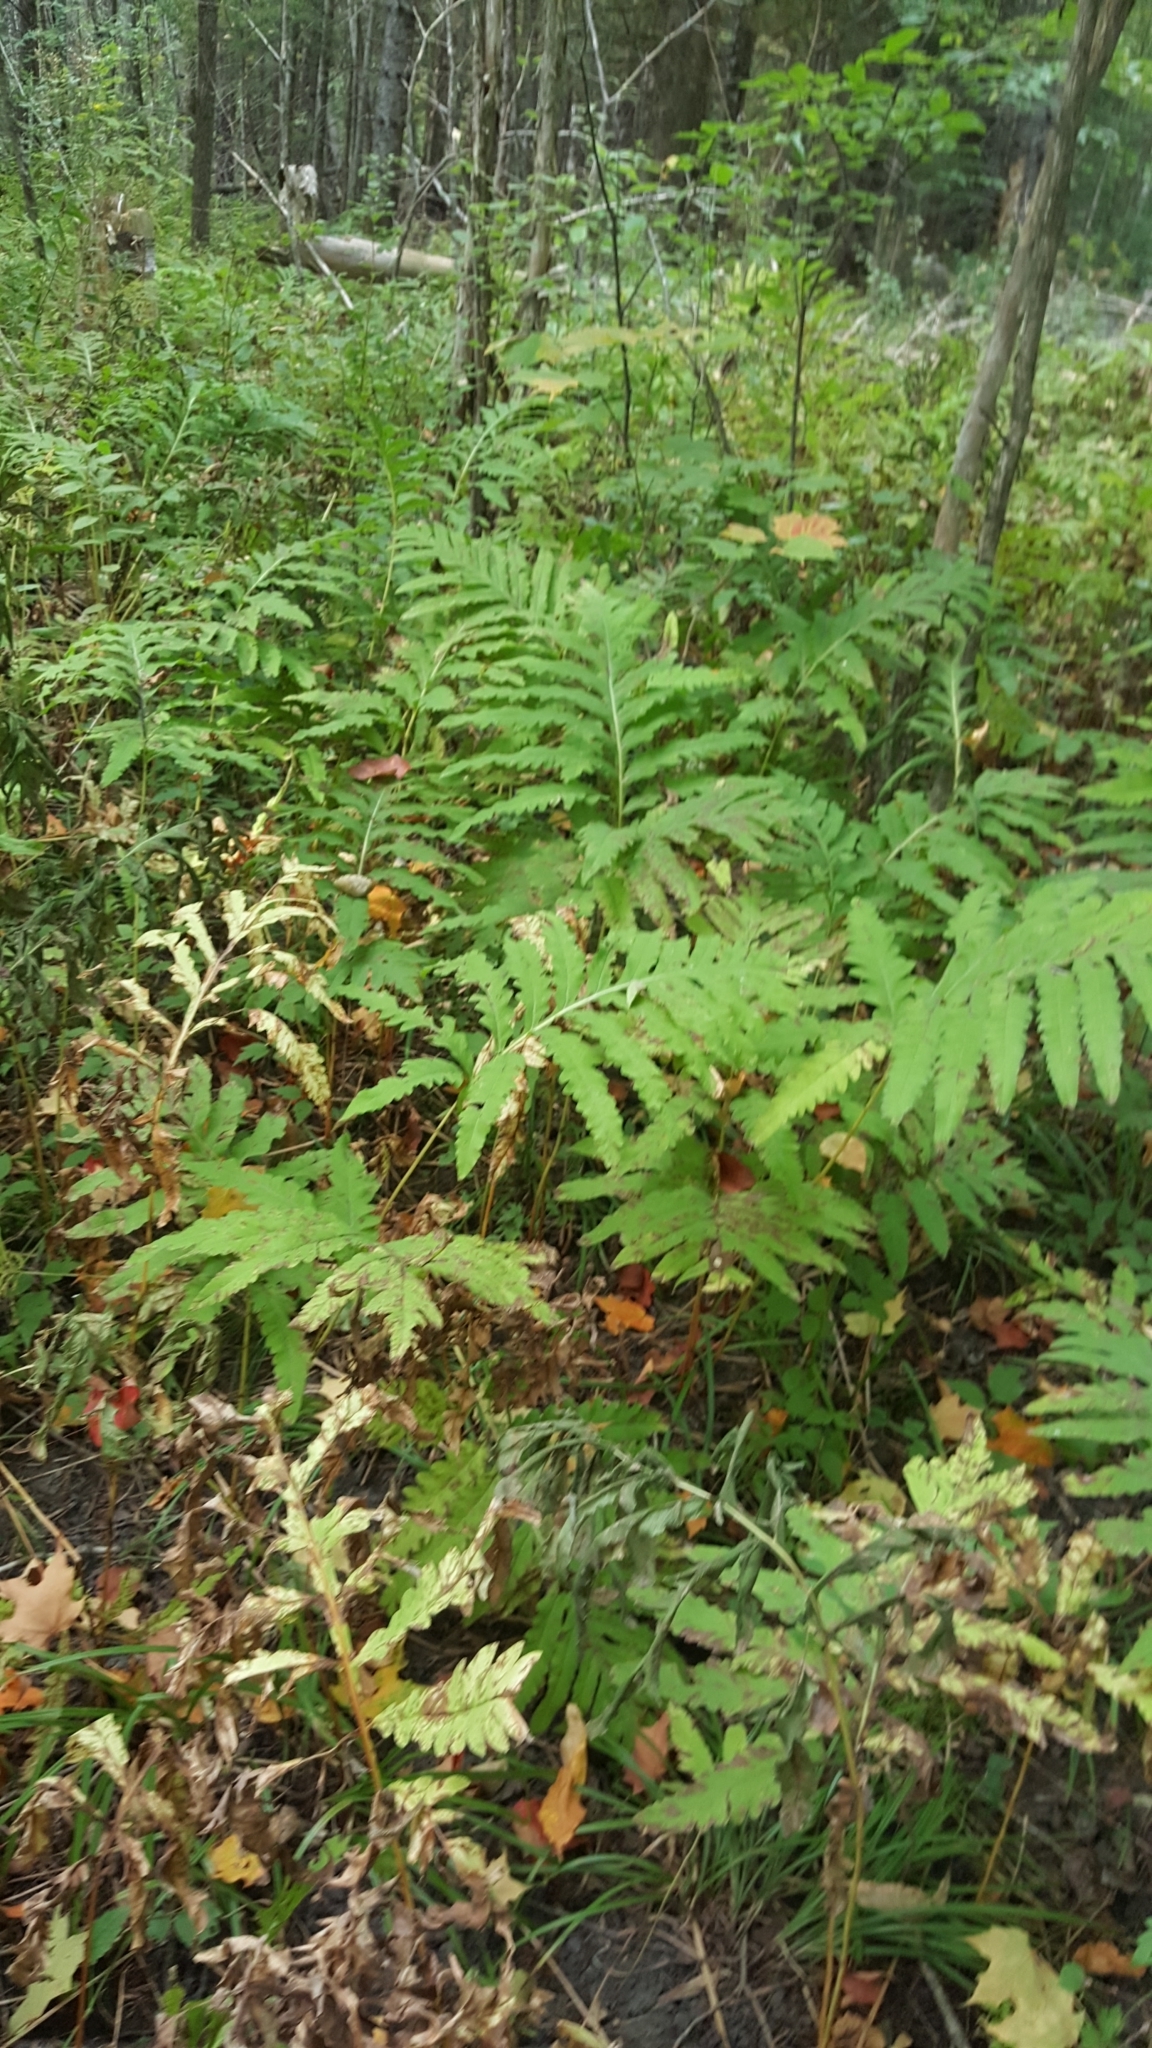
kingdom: Plantae
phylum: Tracheophyta
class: Polypodiopsida
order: Polypodiales
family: Onocleaceae
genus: Onoclea
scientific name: Onoclea sensibilis
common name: Sensitive fern
